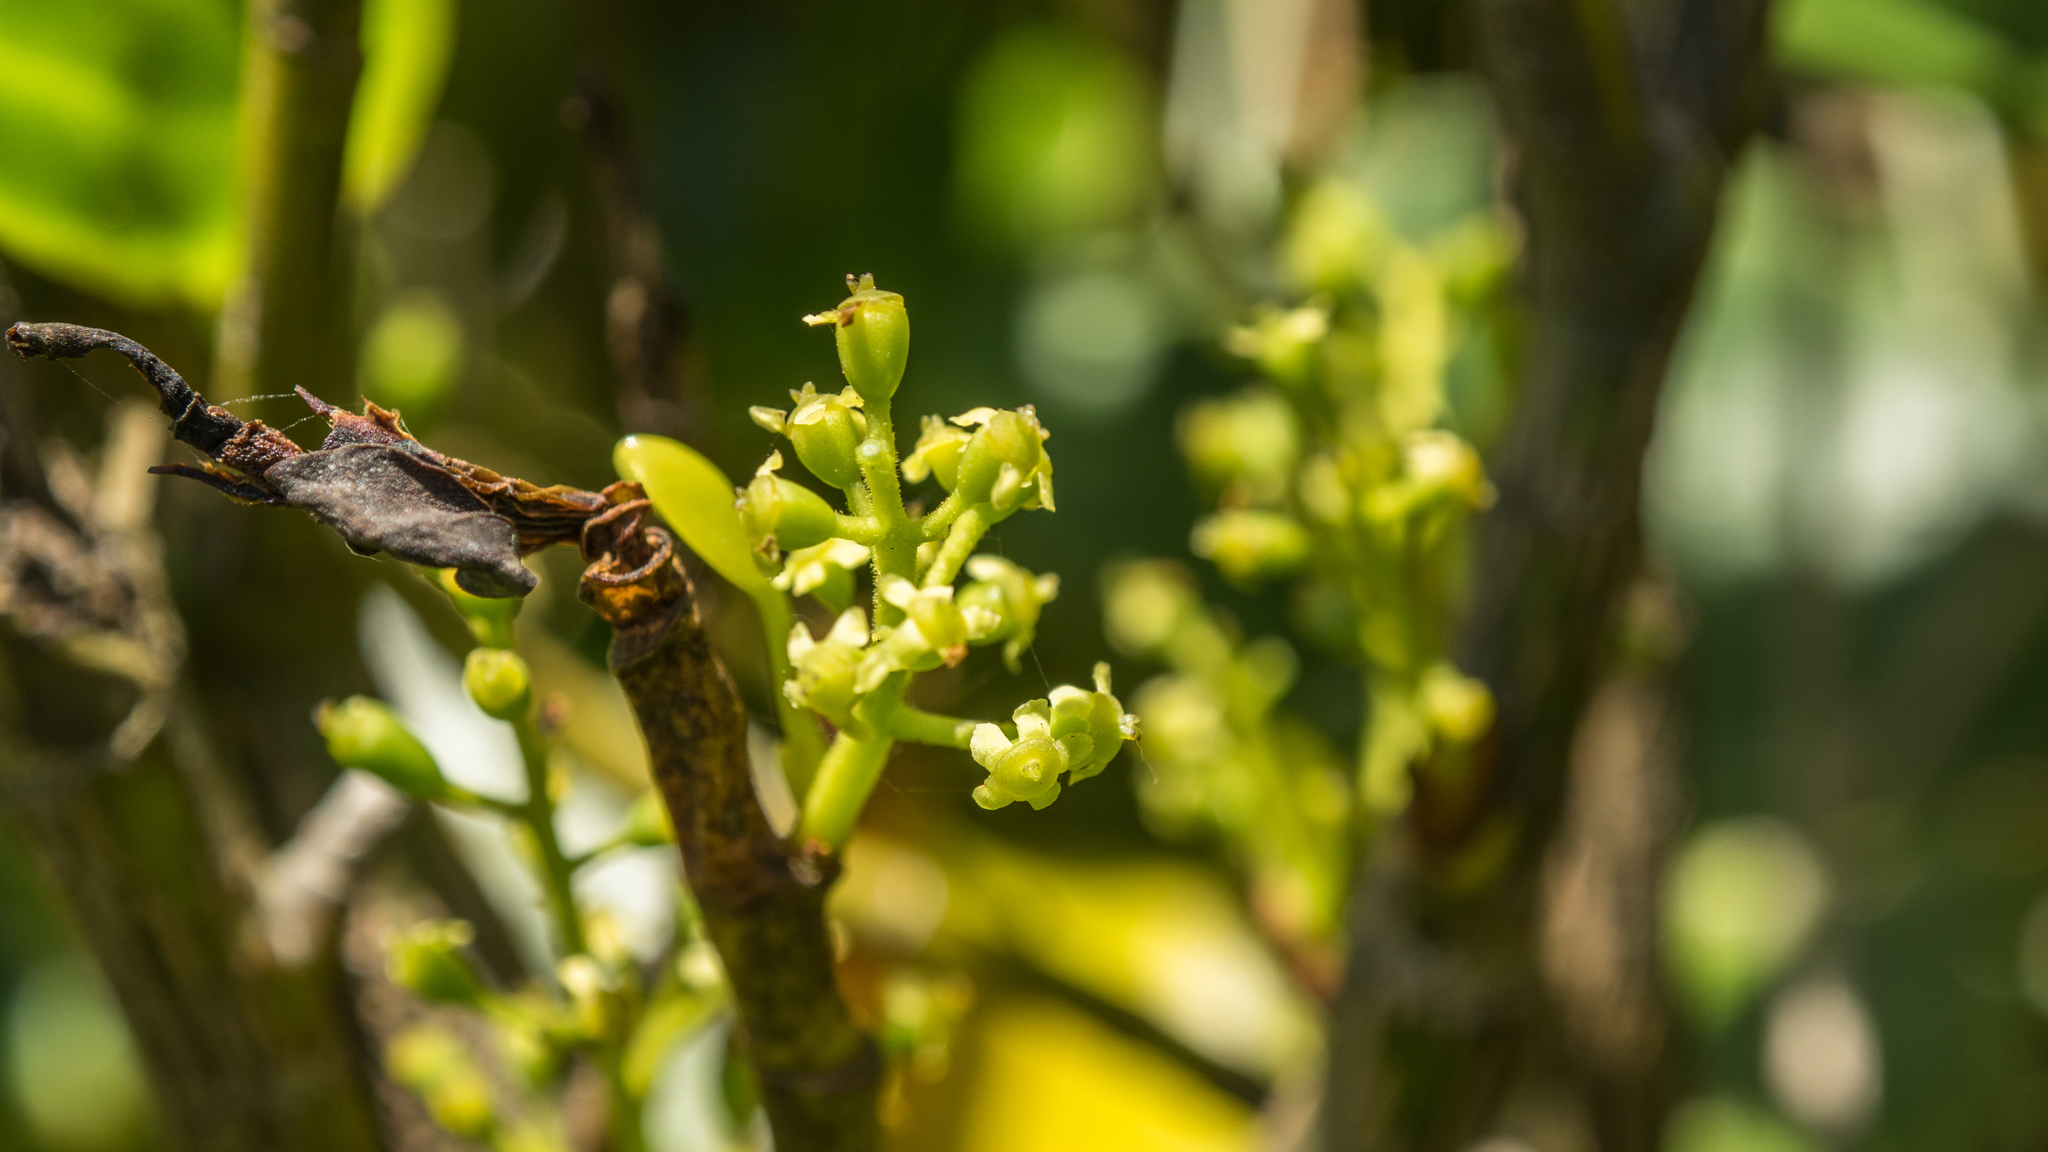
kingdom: Plantae
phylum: Tracheophyta
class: Magnoliopsida
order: Apiales
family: Griseliniaceae
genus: Griselinia
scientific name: Griselinia littoralis
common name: New zealand broadleaf
